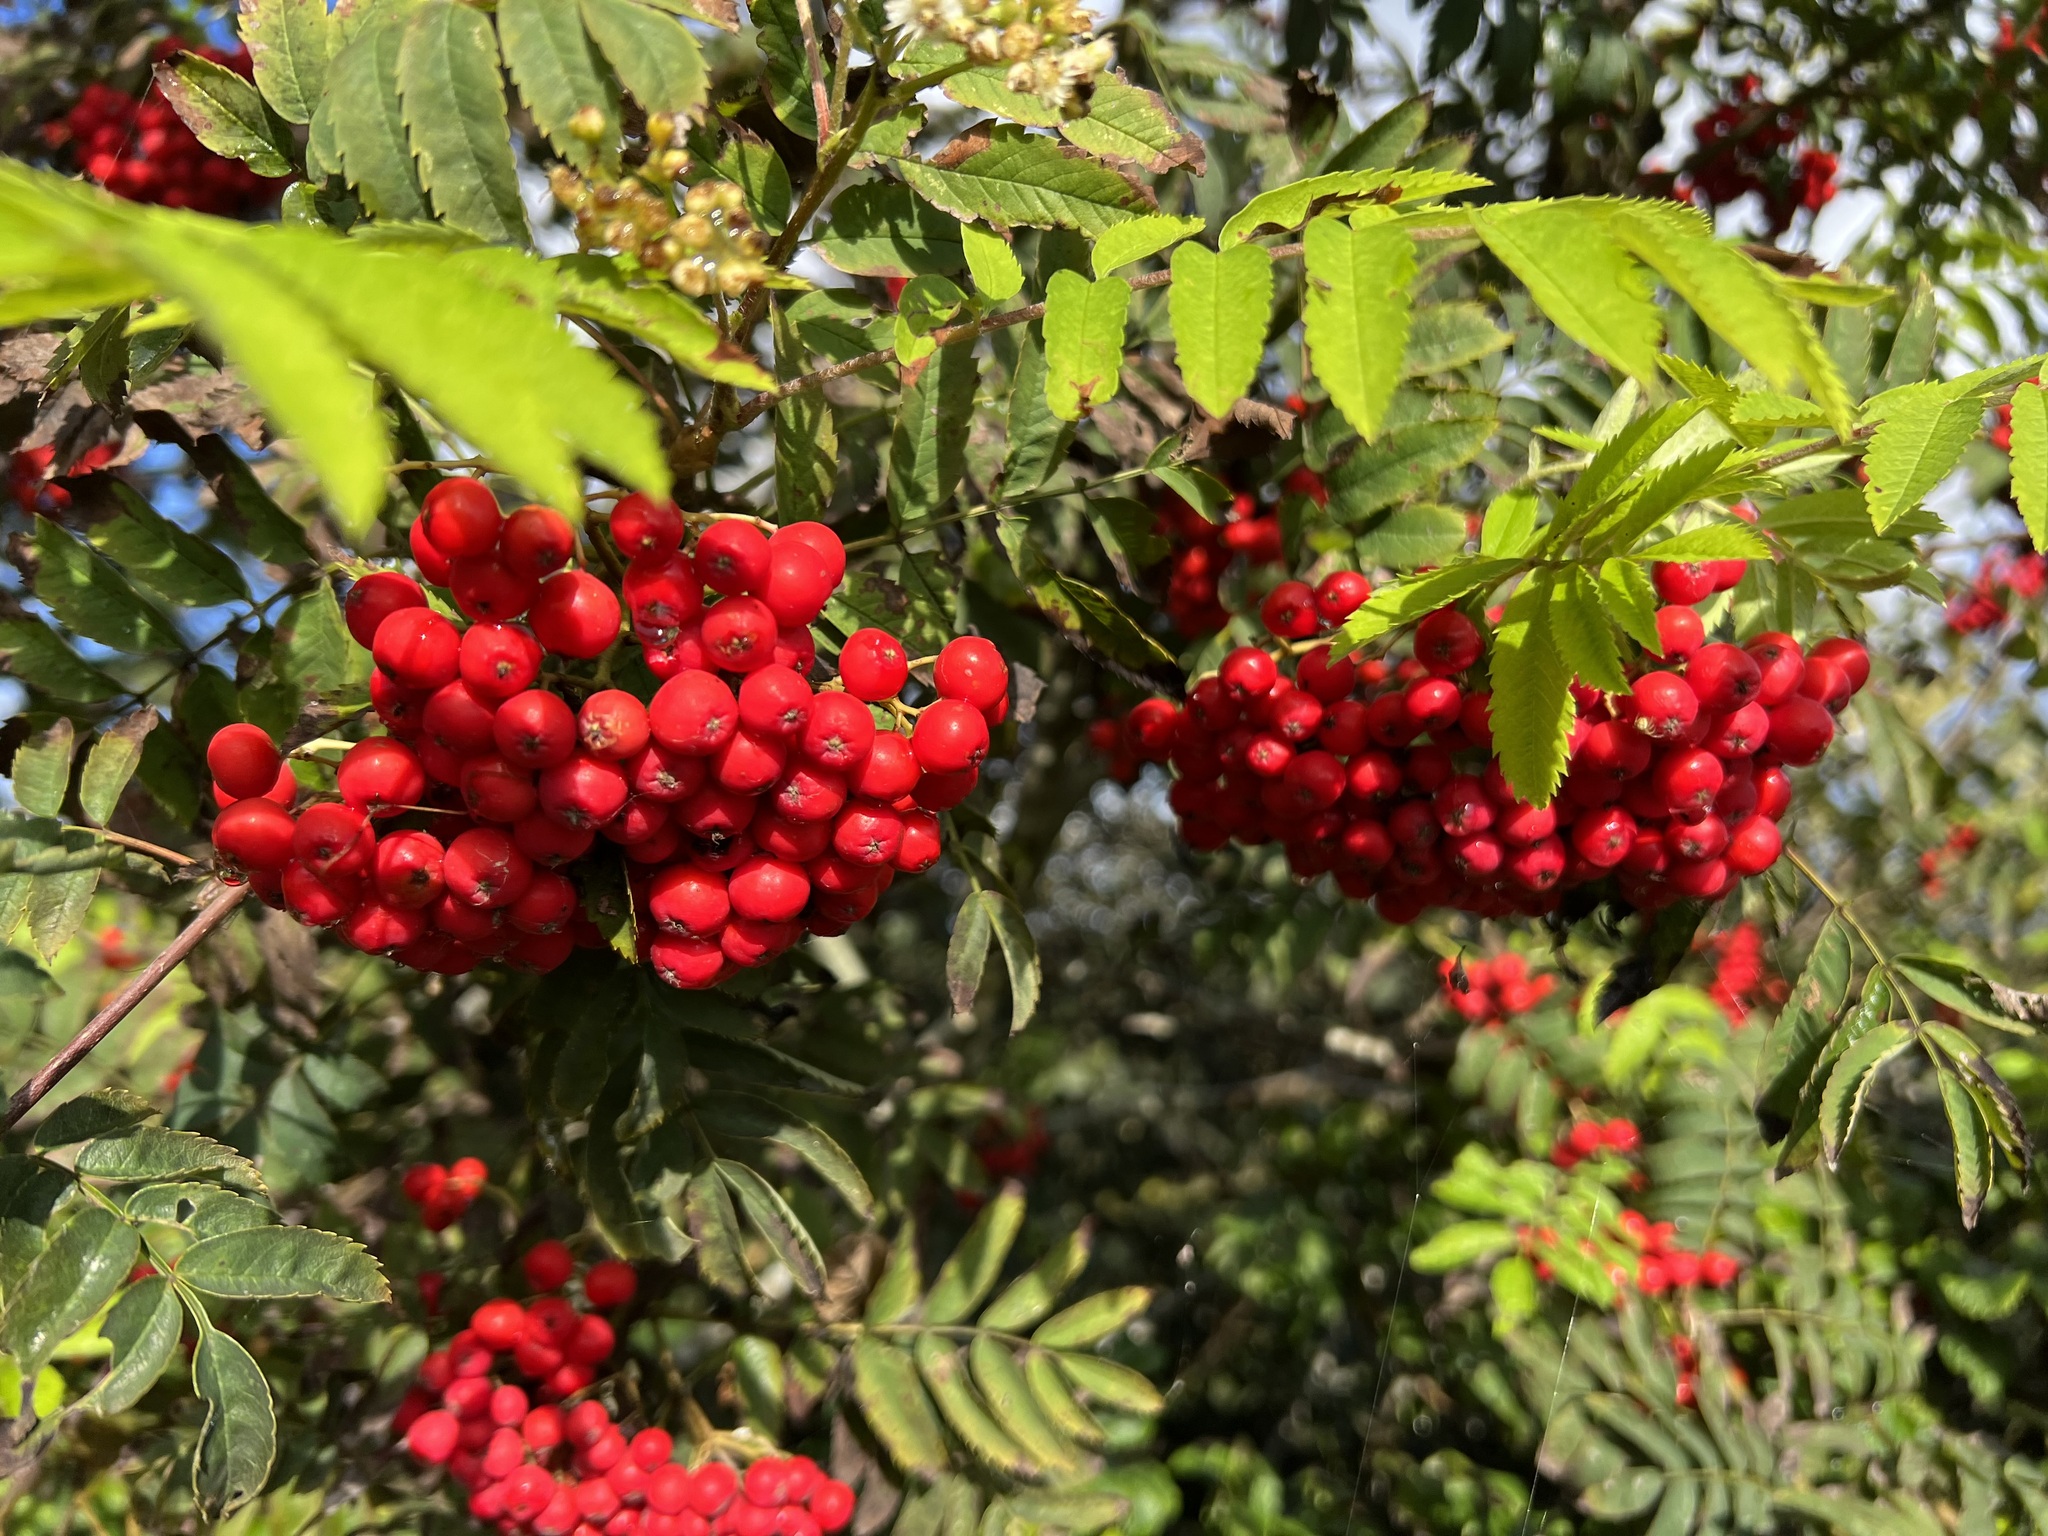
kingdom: Plantae
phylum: Tracheophyta
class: Magnoliopsida
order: Rosales
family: Rosaceae
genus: Sorbus
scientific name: Sorbus aucuparia
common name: Rowan
